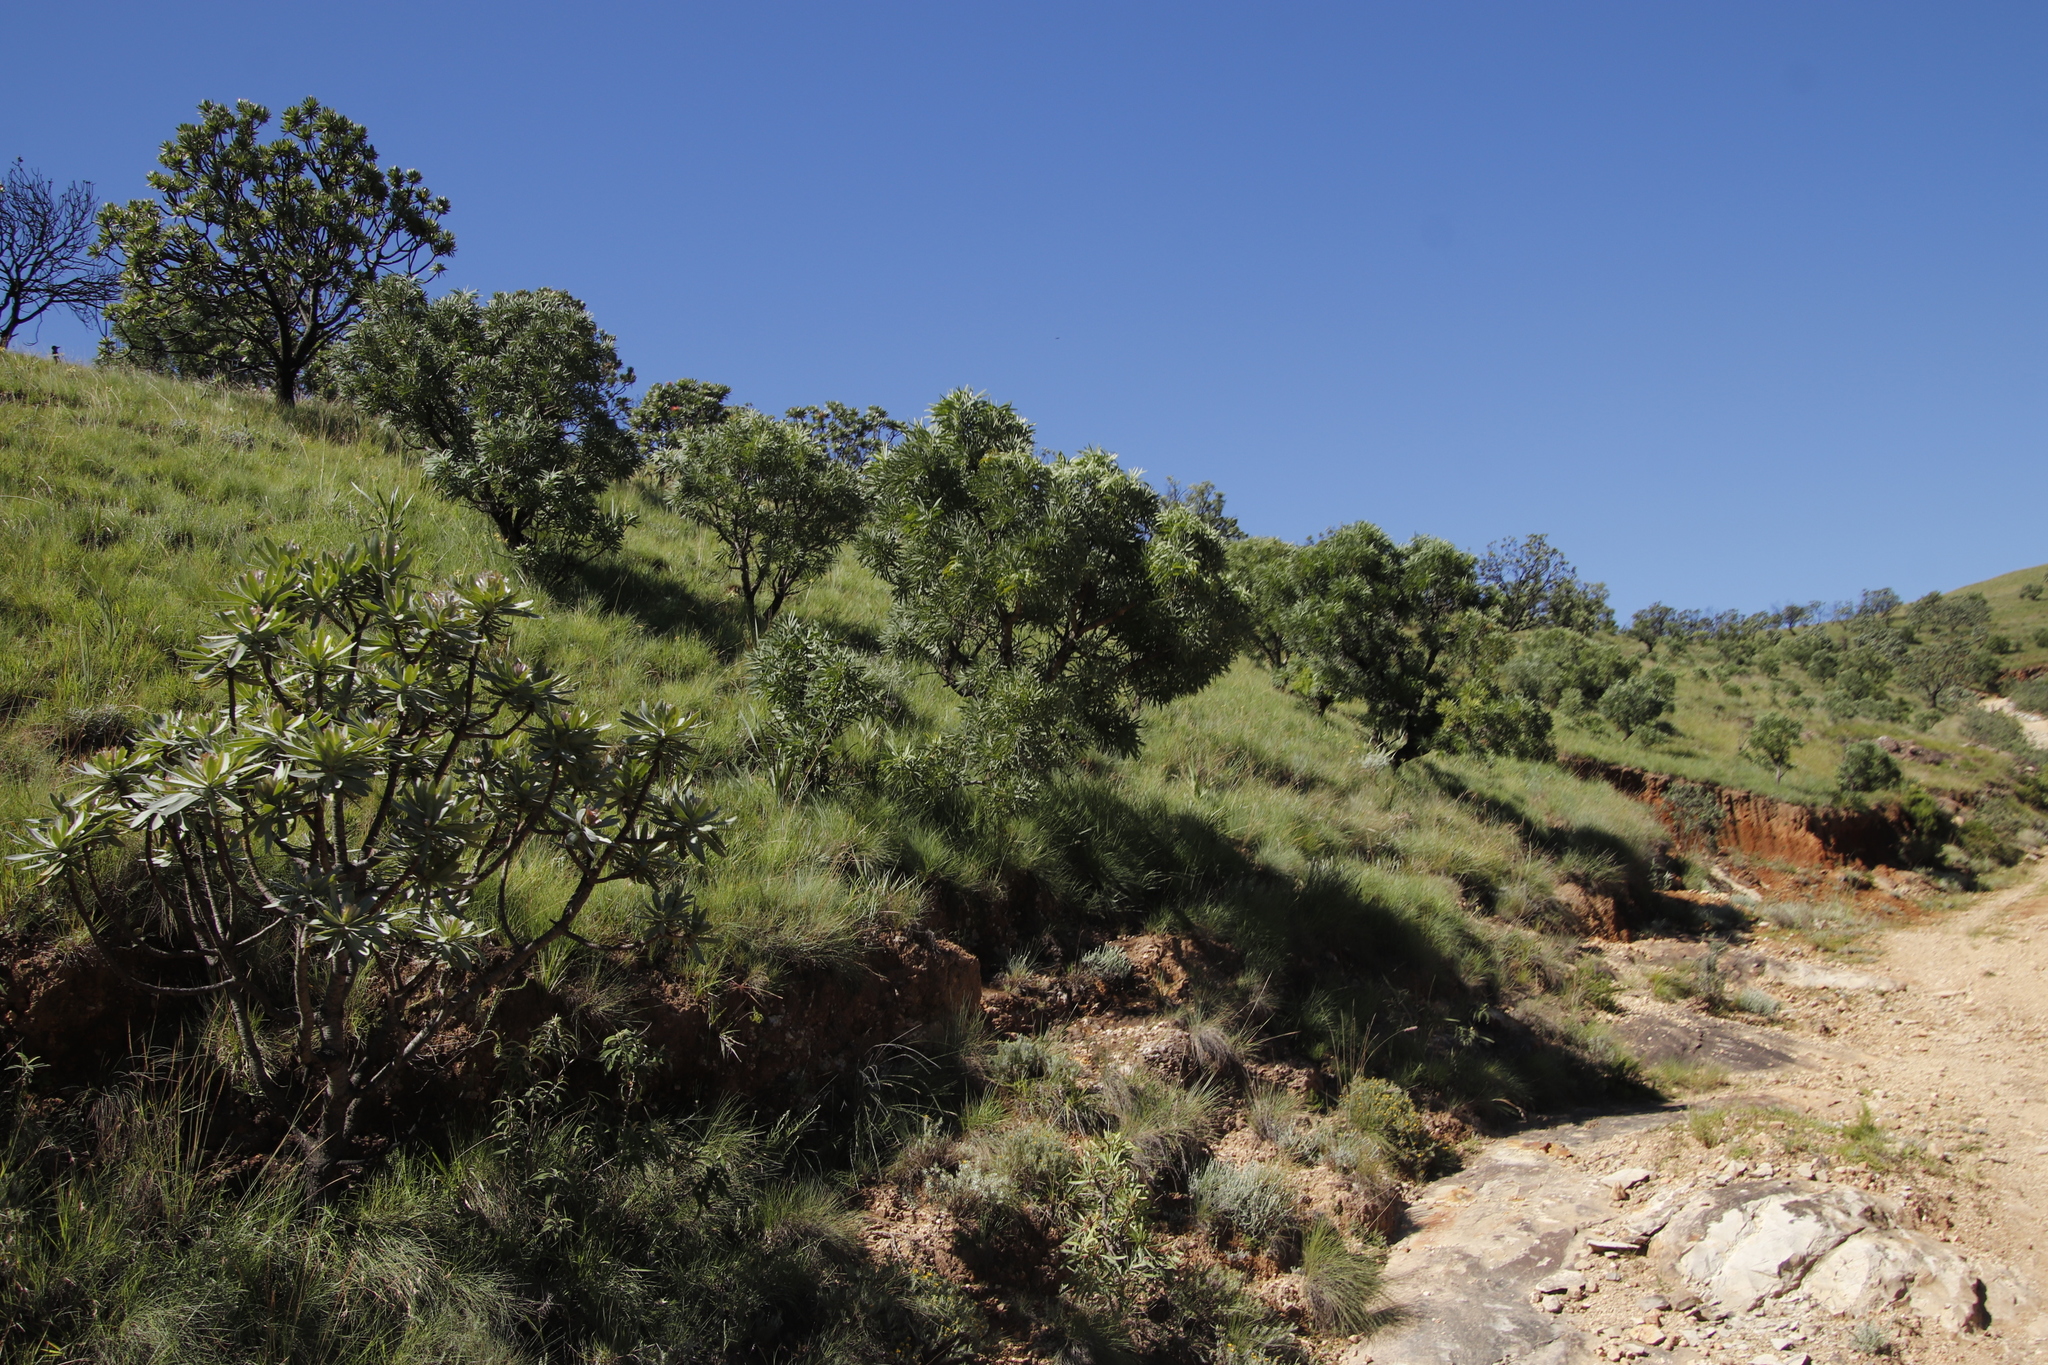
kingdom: Plantae
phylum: Tracheophyta
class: Magnoliopsida
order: Proteales
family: Proteaceae
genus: Protea
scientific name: Protea caffra
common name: Common sugarbush
